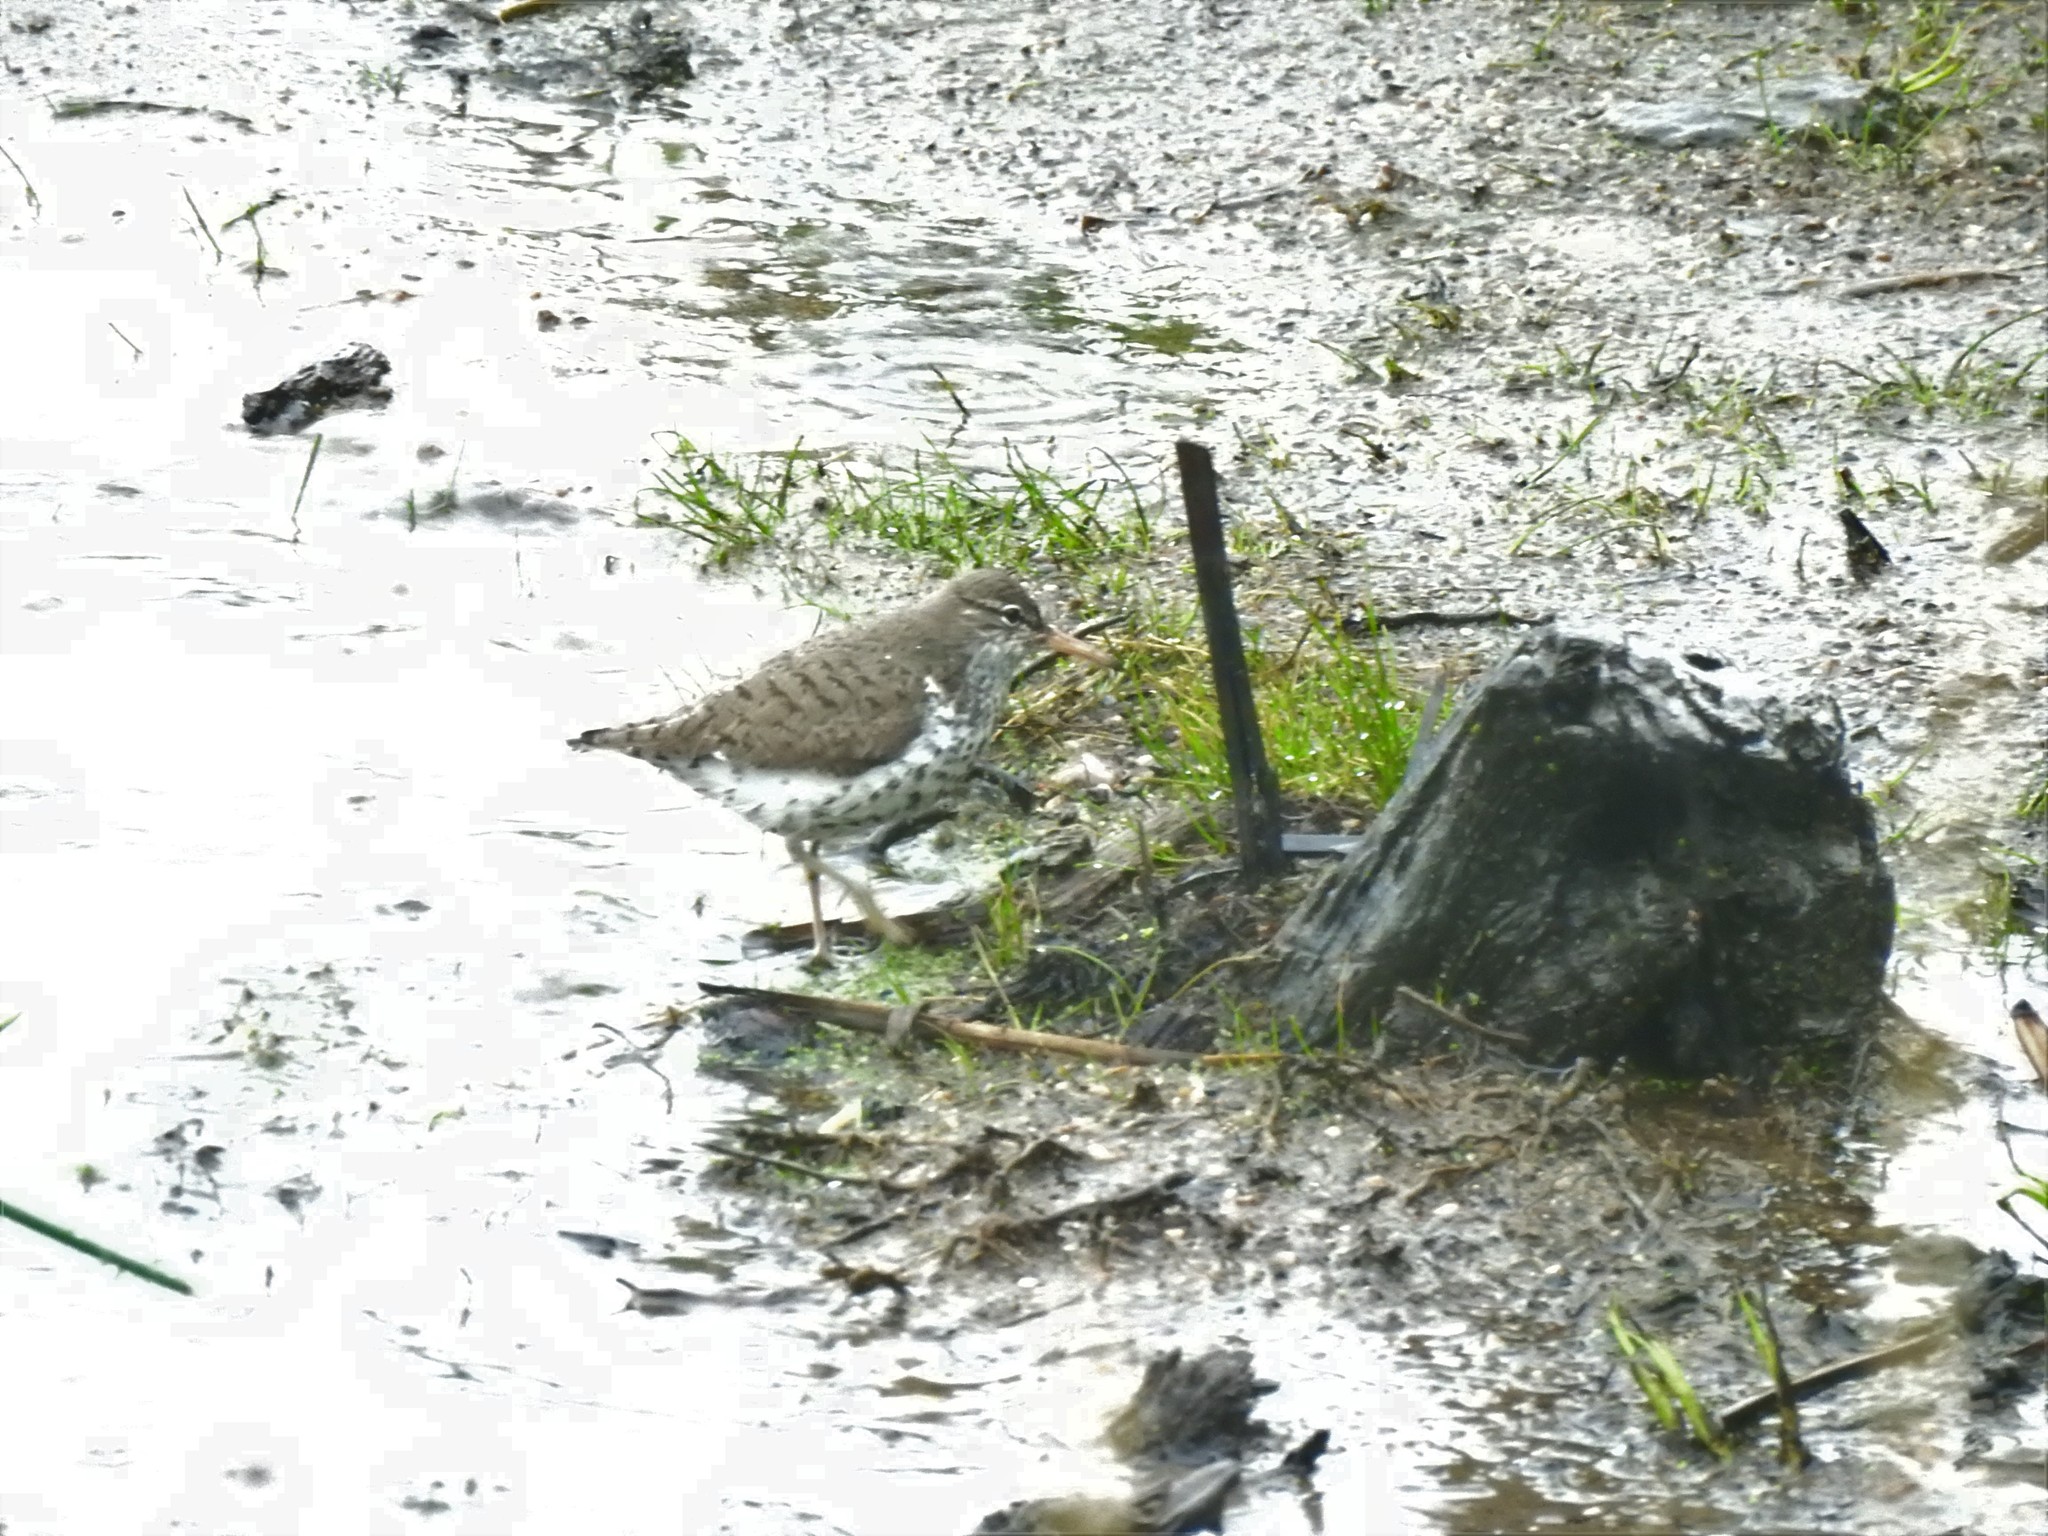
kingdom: Animalia
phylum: Chordata
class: Aves
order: Charadriiformes
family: Scolopacidae
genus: Actitis
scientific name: Actitis macularius
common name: Spotted sandpiper
